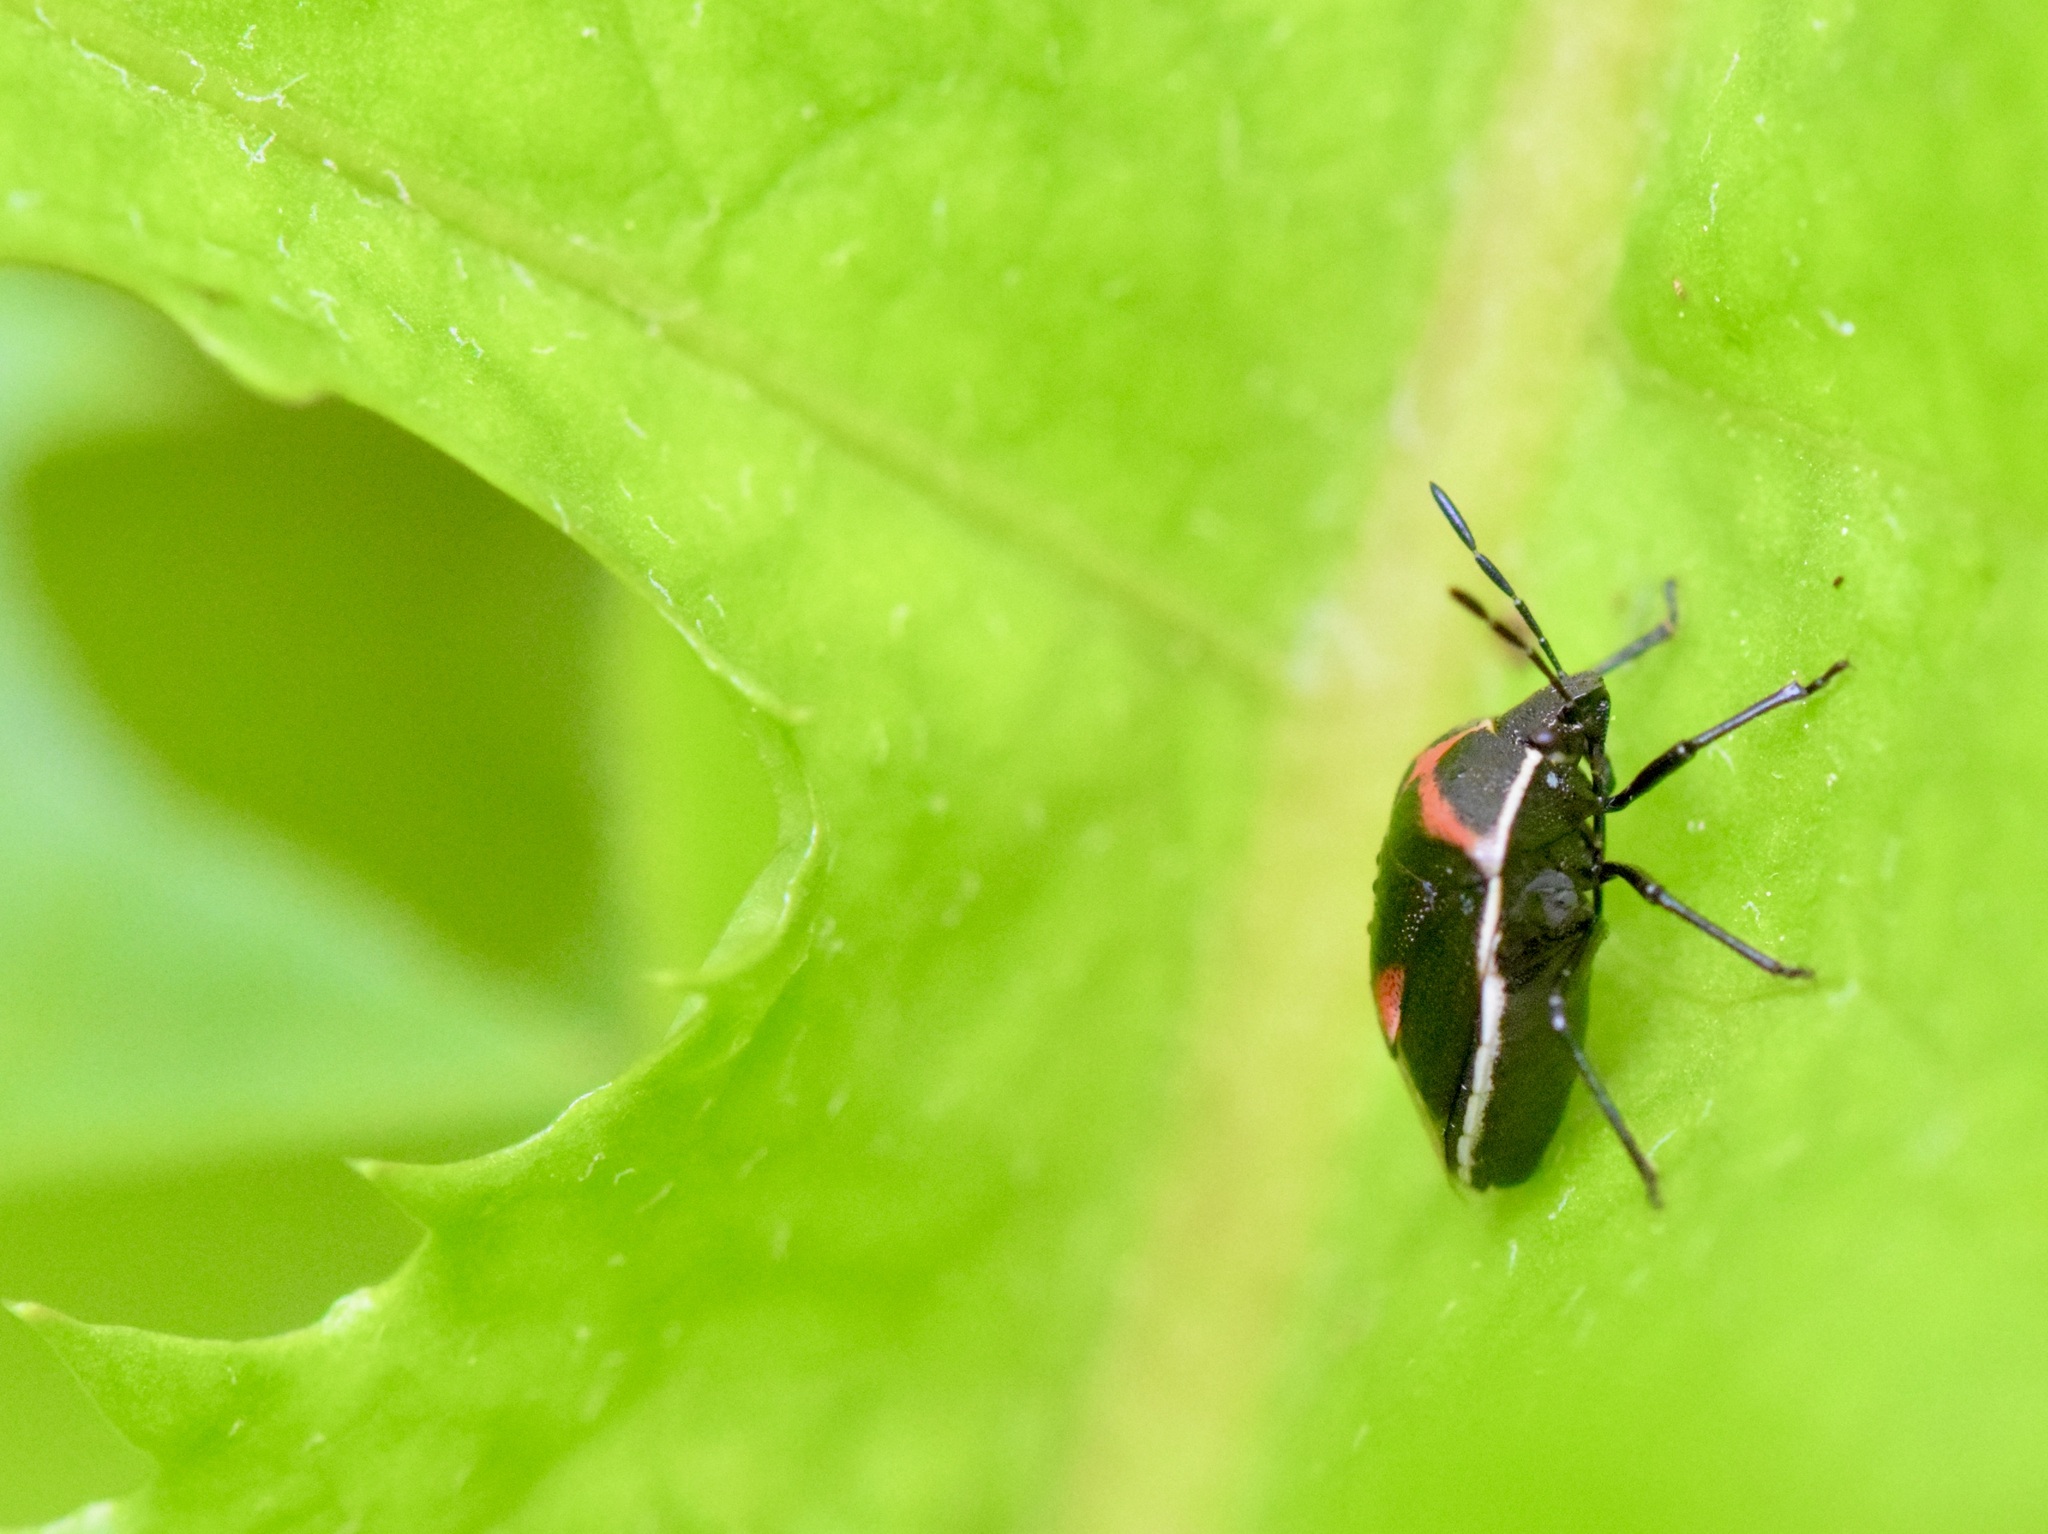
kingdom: Animalia
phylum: Arthropoda
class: Insecta
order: Hemiptera
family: Pentatomidae
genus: Cosmopepla
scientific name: Cosmopepla lintneriana
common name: Twice-stabbed stink bug
